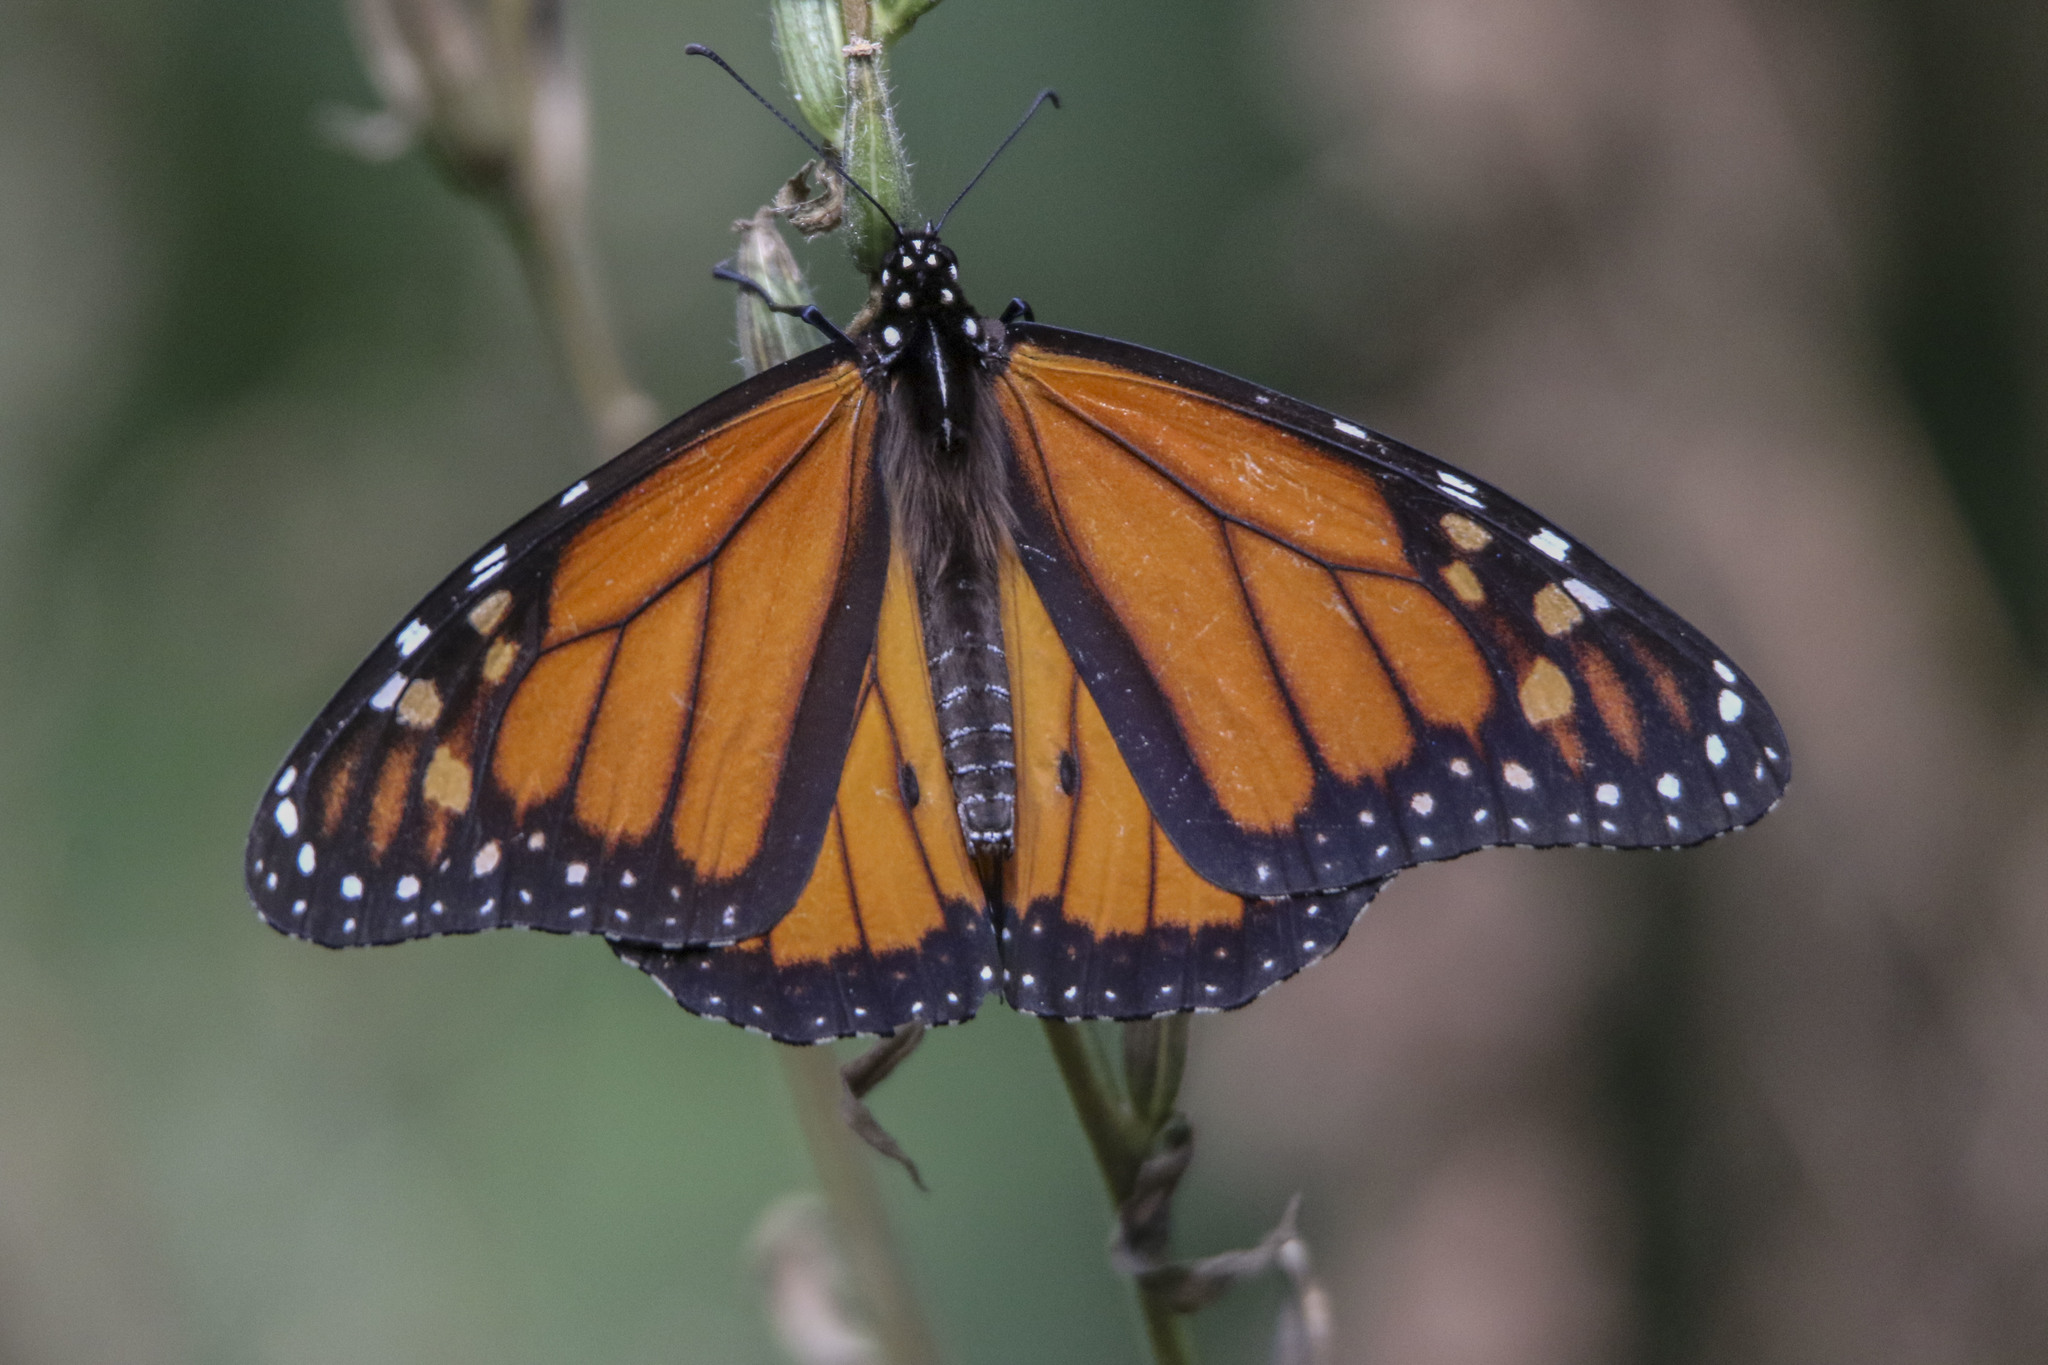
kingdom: Animalia
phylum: Arthropoda
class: Insecta
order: Lepidoptera
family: Nymphalidae
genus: Danaus
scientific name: Danaus plexippus
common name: Monarch
